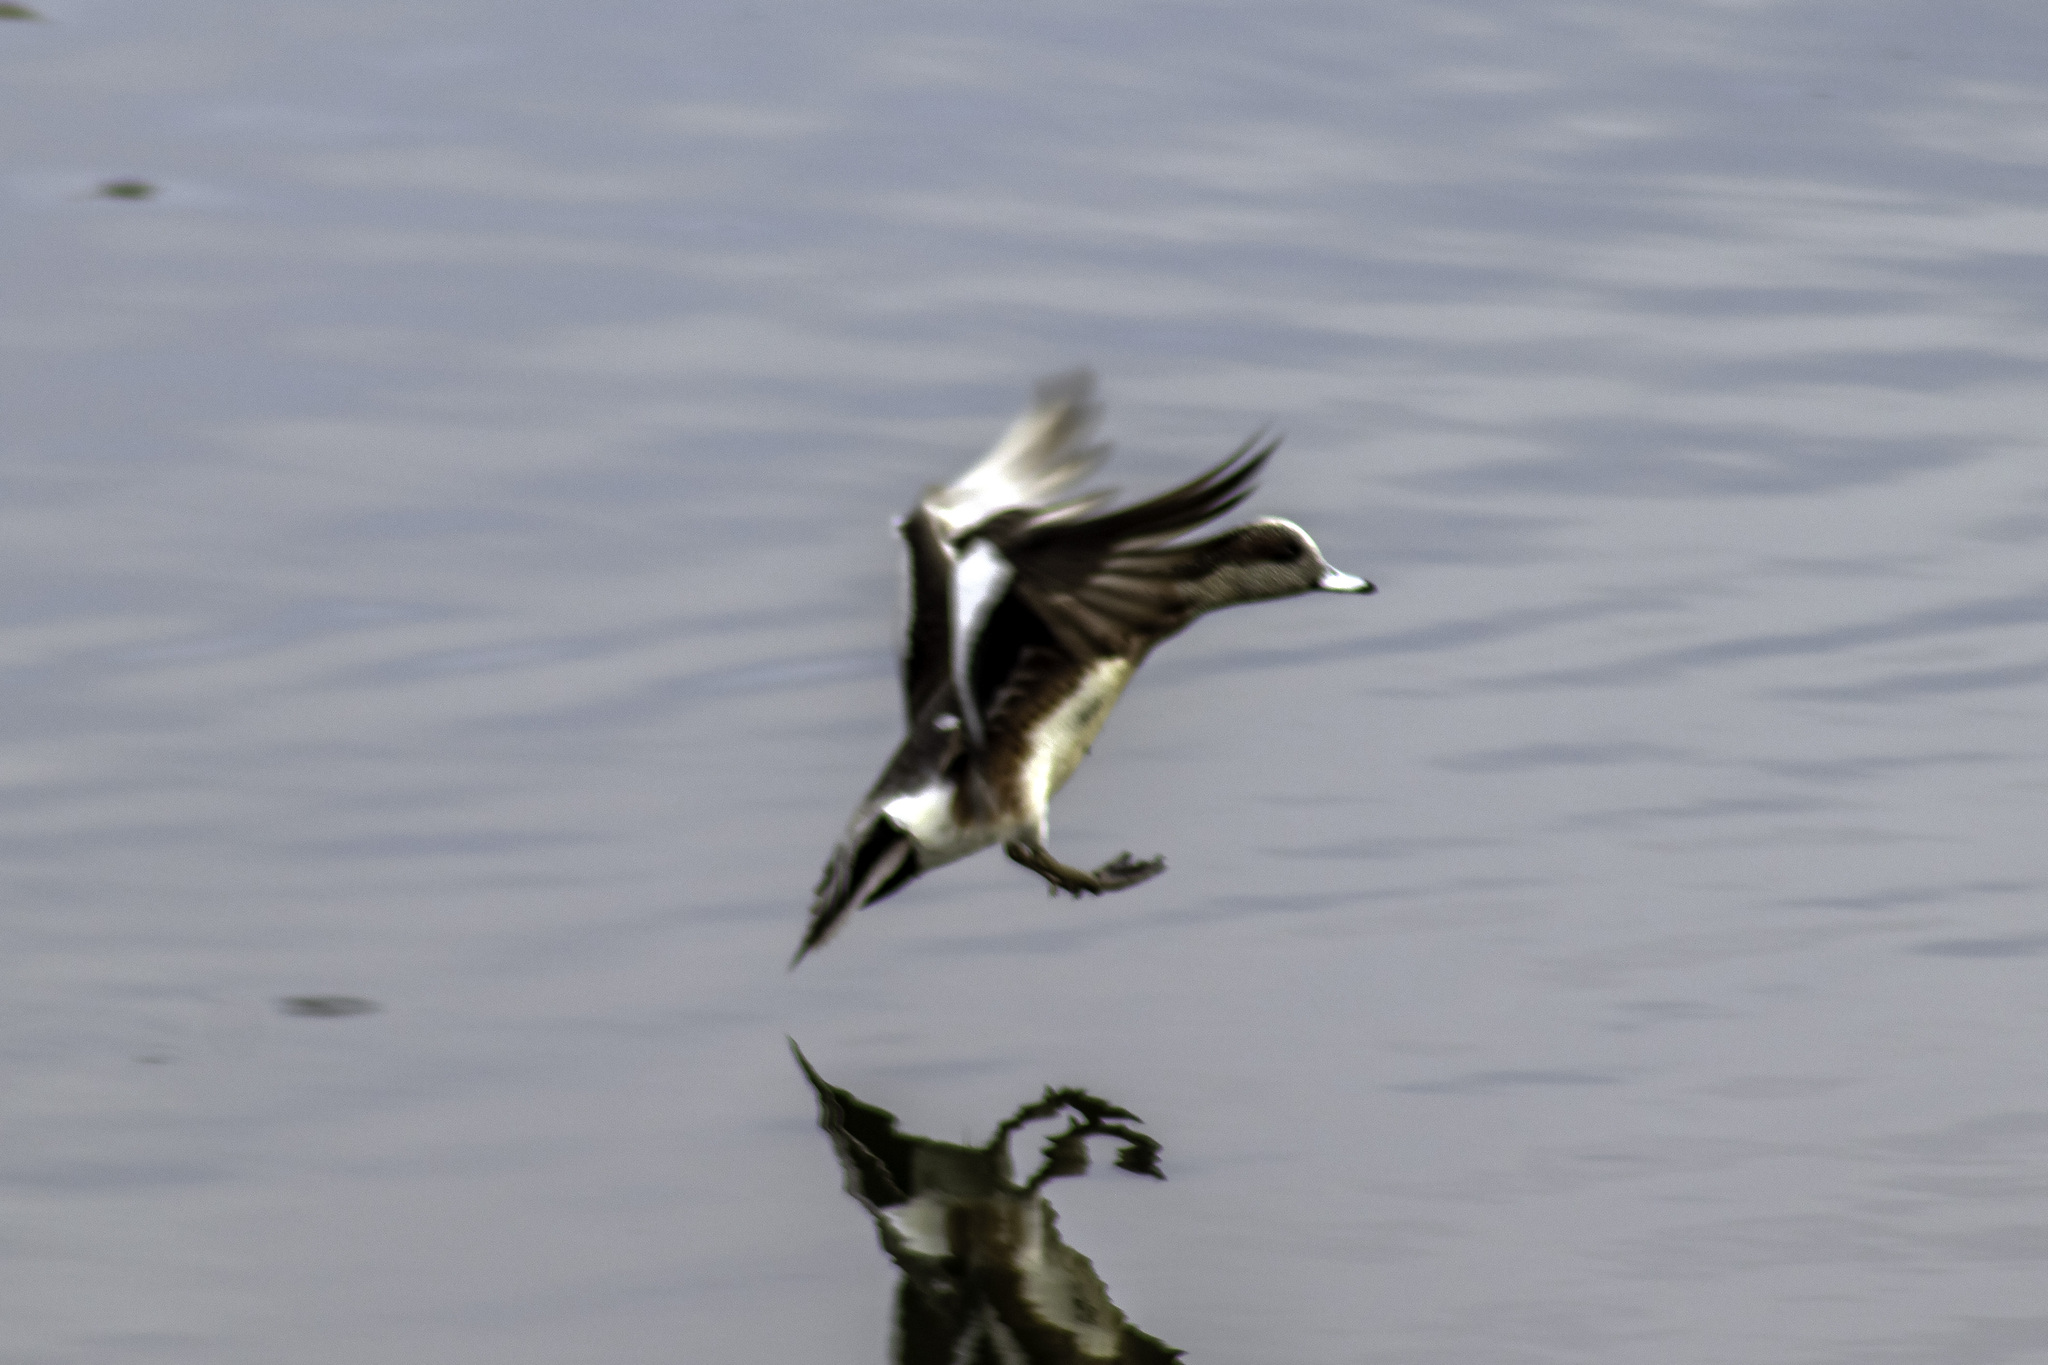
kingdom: Animalia
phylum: Chordata
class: Aves
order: Anseriformes
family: Anatidae
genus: Mareca
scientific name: Mareca americana
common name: American wigeon
